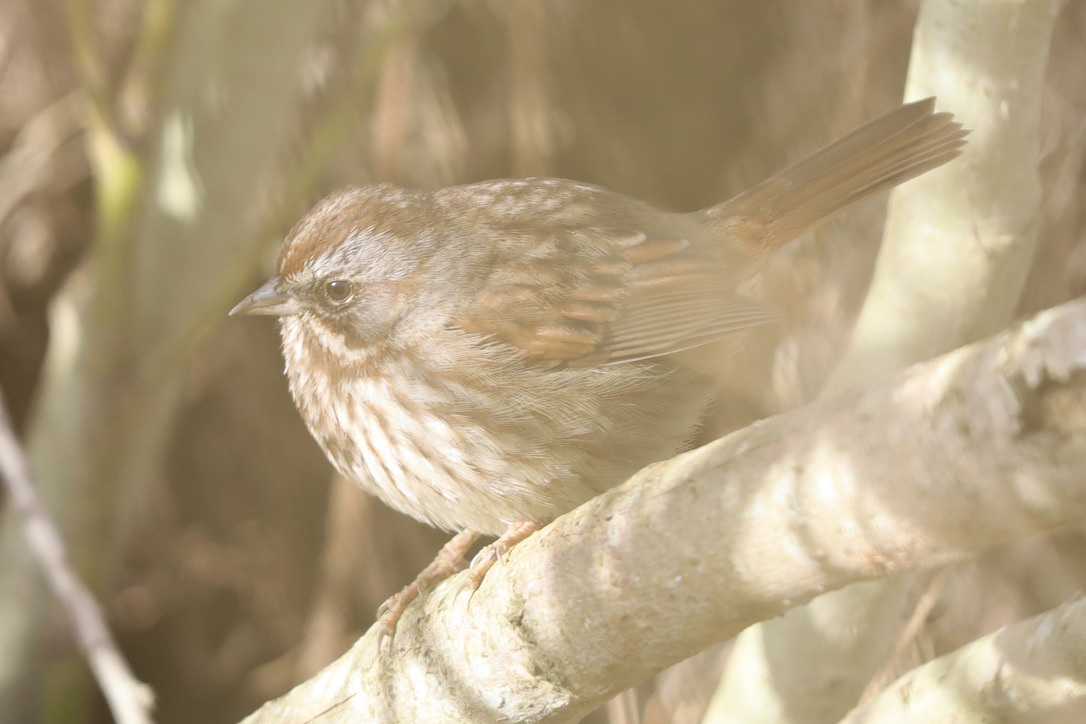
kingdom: Animalia
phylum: Chordata
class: Aves
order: Passeriformes
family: Passerellidae
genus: Melospiza
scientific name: Melospiza melodia
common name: Song sparrow
